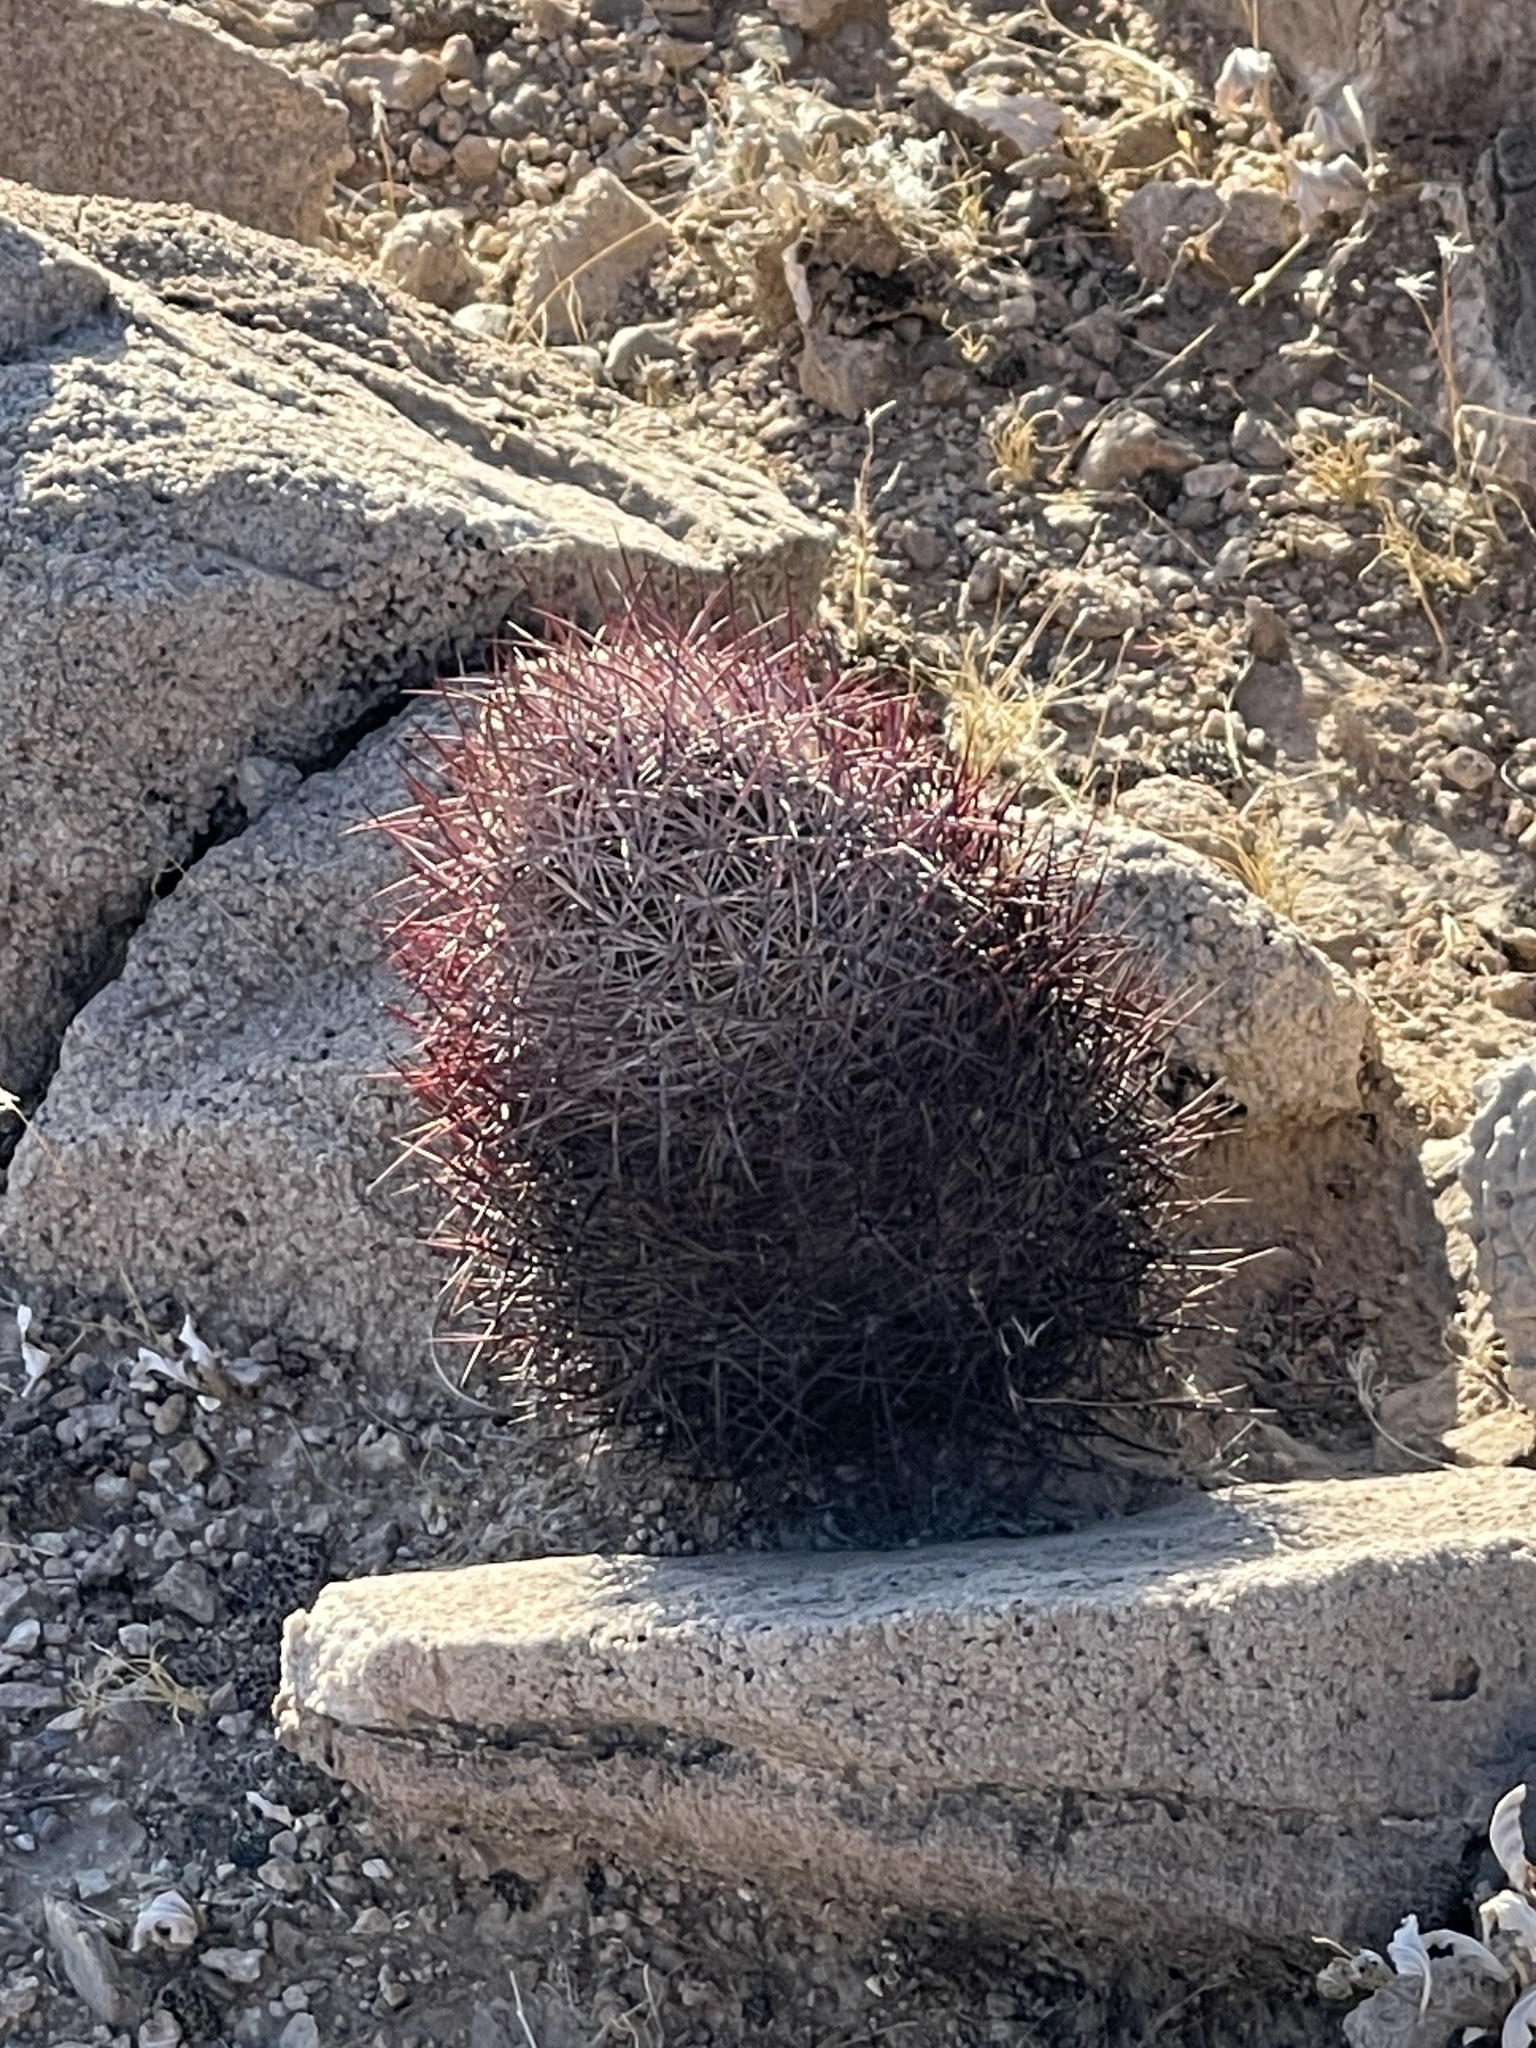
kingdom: Plantae
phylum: Tracheophyta
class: Magnoliopsida
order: Caryophyllales
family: Cactaceae
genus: Sclerocactus
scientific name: Sclerocactus johnsonii
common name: Eight-spine fishhook cactus
